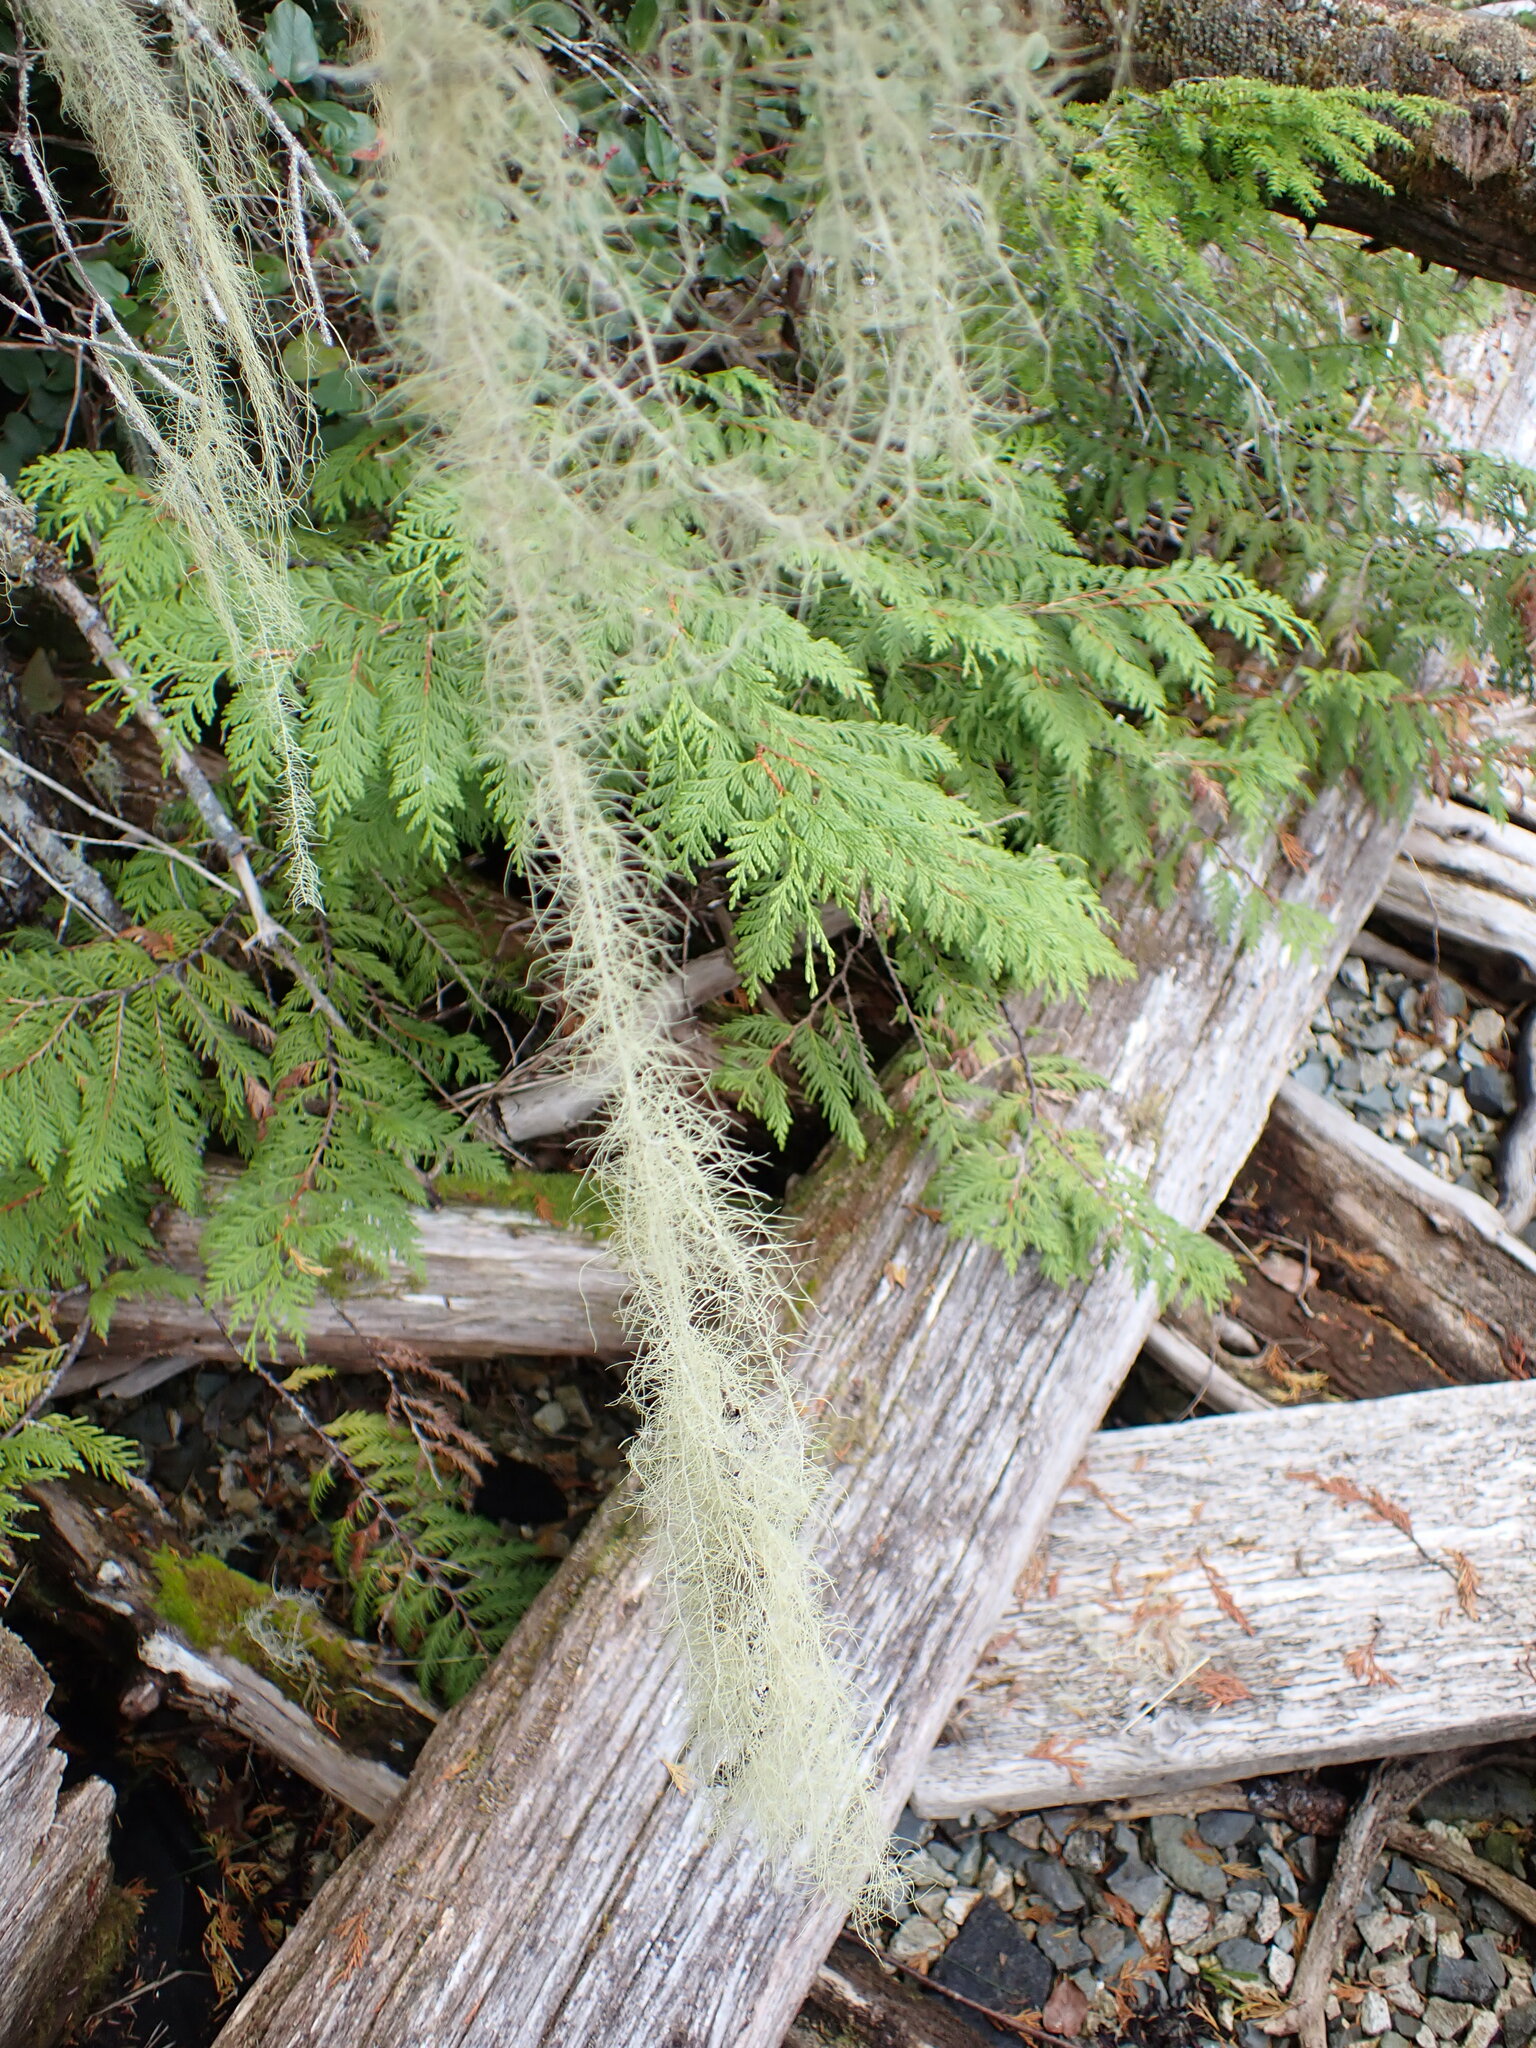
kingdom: Fungi
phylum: Ascomycota
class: Lecanoromycetes
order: Lecanorales
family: Parmeliaceae
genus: Dolichousnea
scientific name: Dolichousnea longissima
